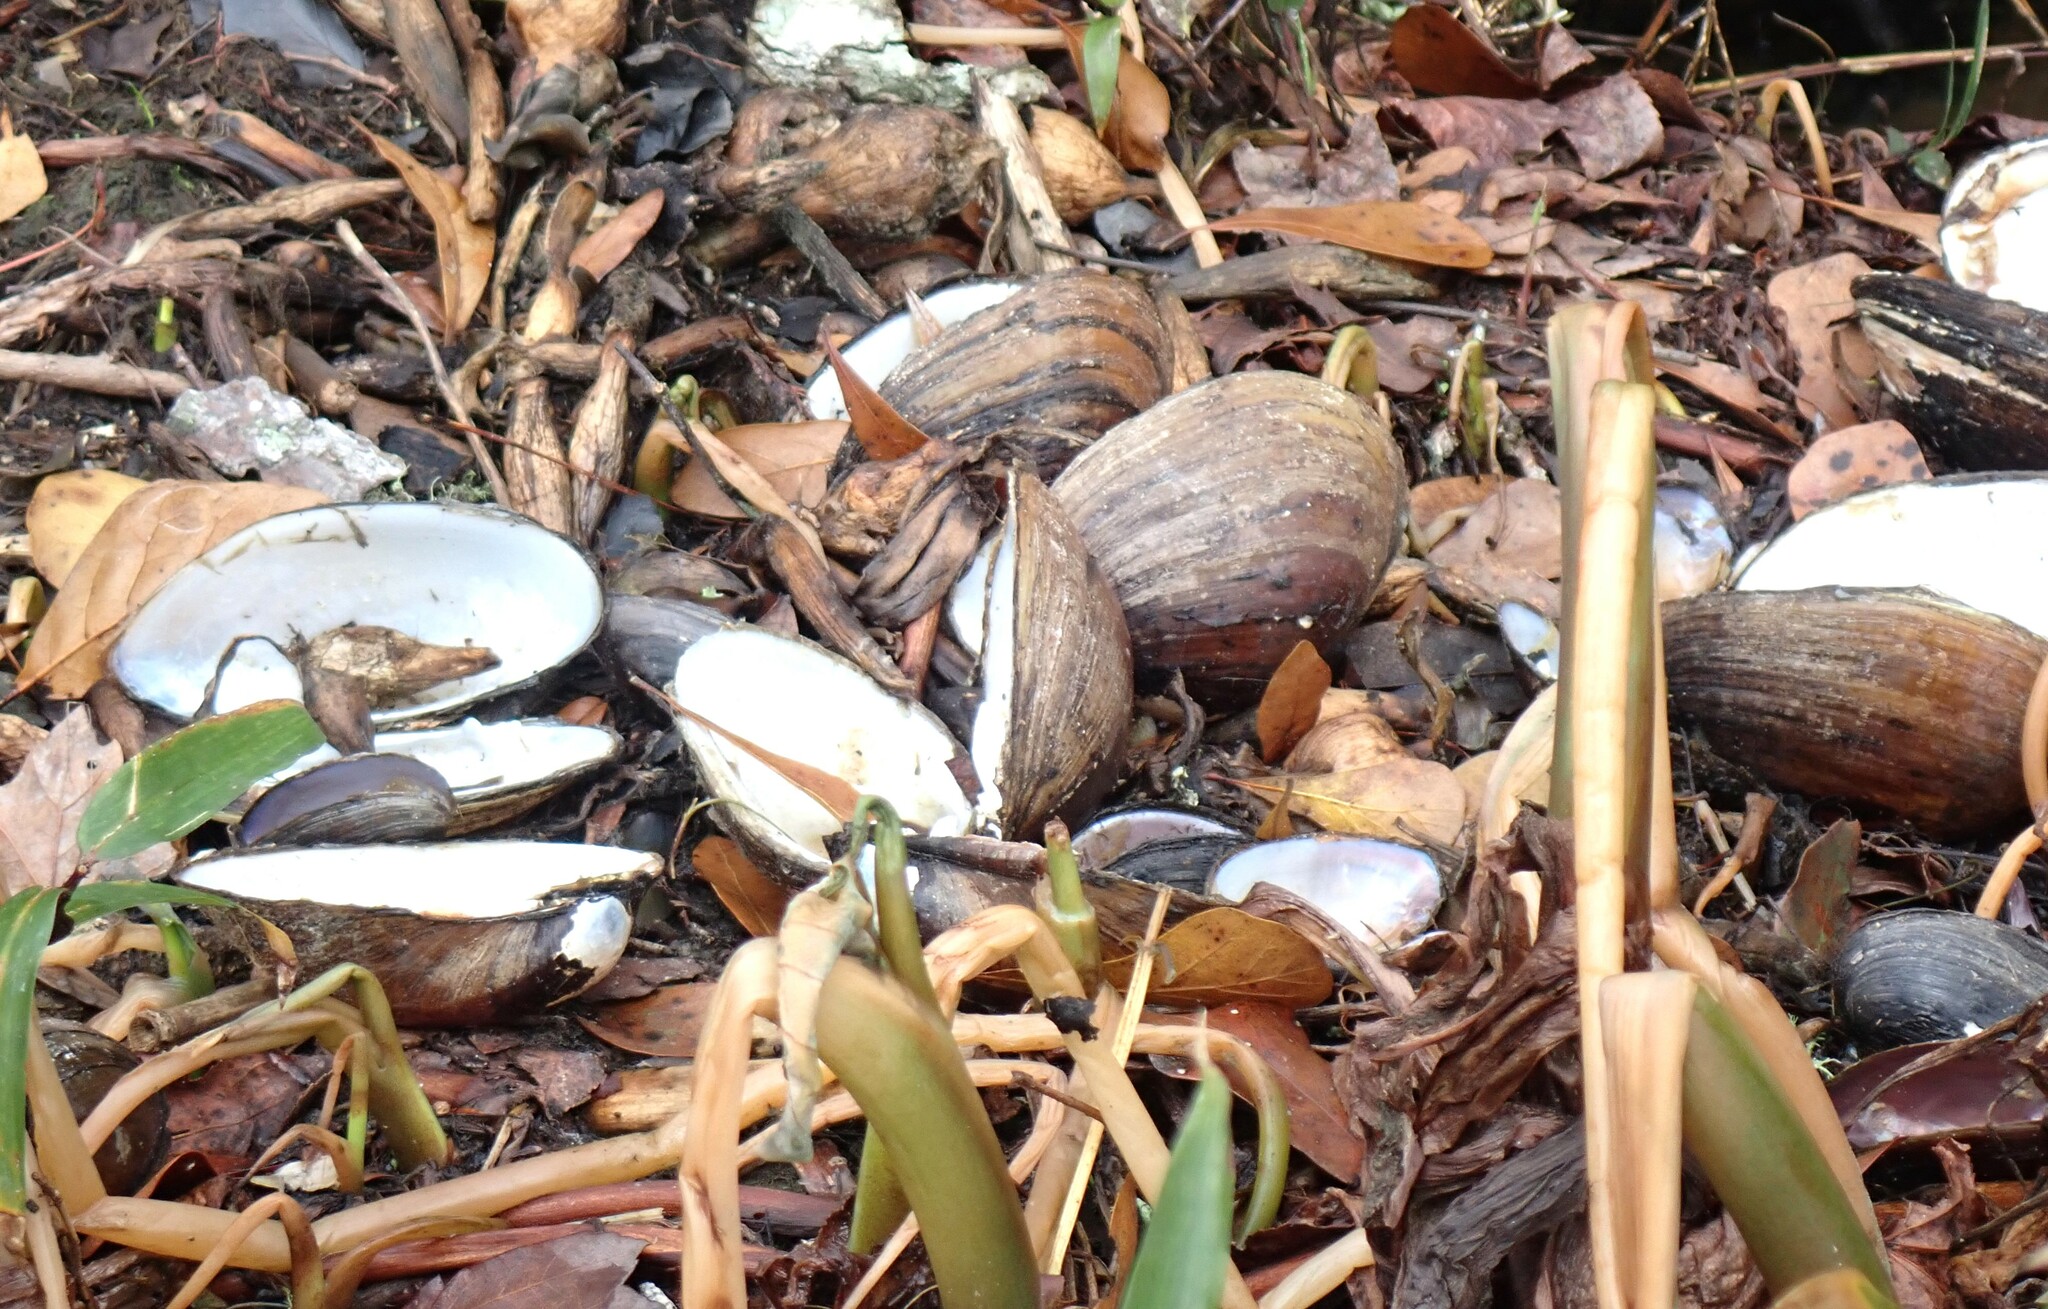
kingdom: Animalia
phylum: Mollusca
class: Bivalvia
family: Amblemidae
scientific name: Amblemidae
